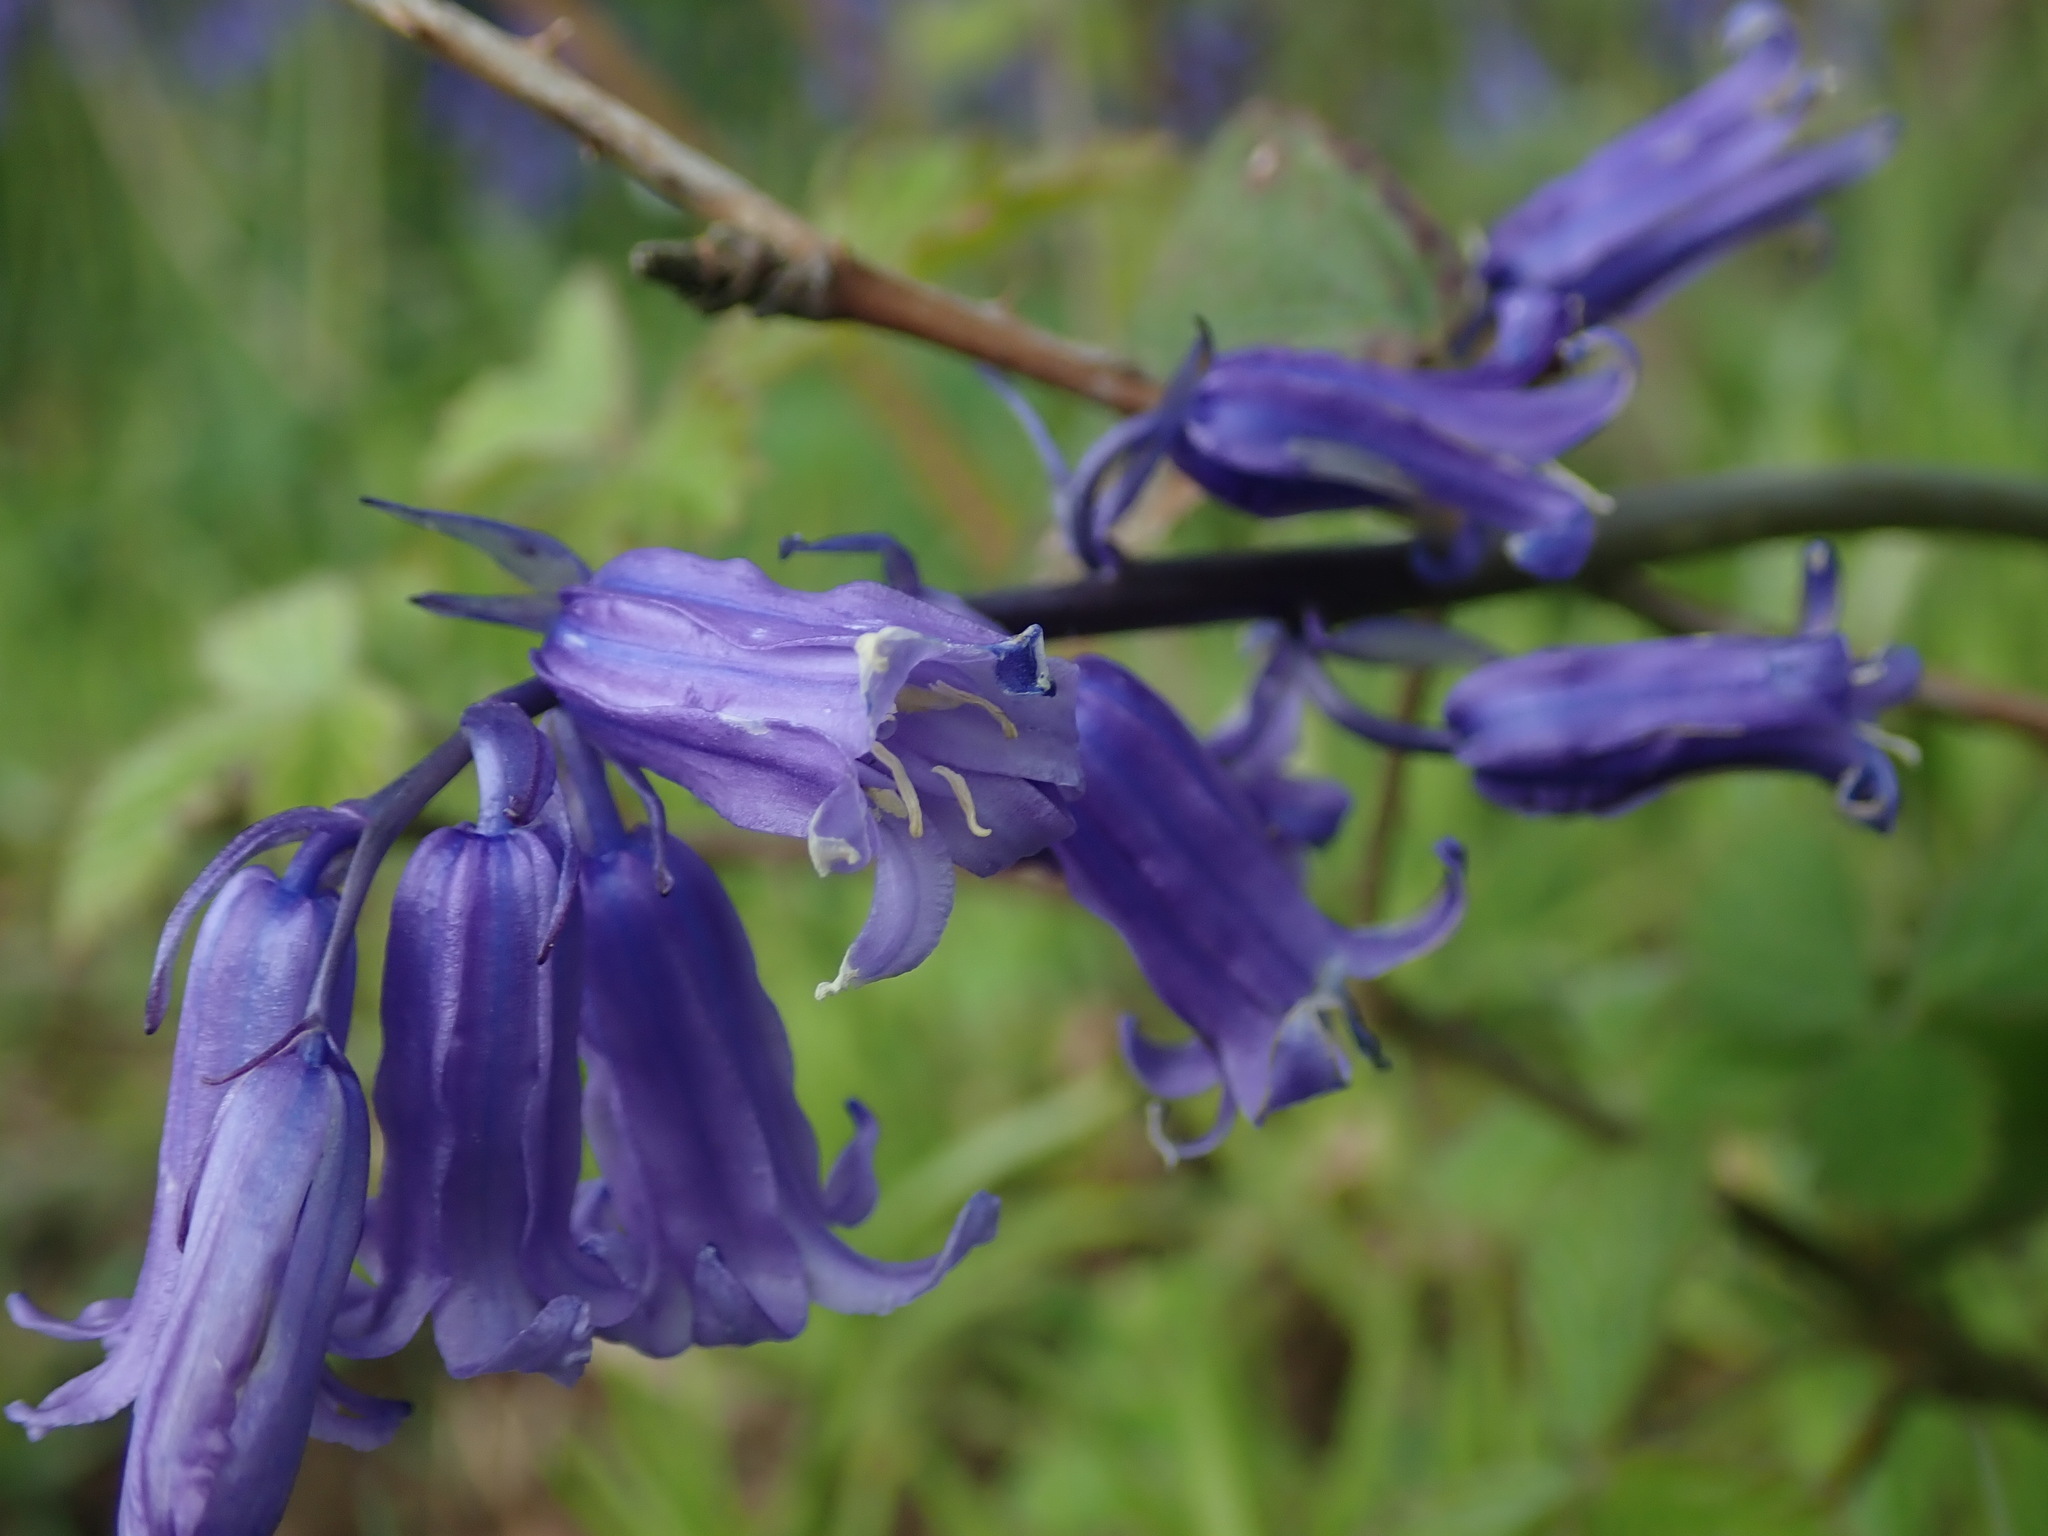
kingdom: Plantae
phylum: Tracheophyta
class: Liliopsida
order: Asparagales
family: Asparagaceae
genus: Hyacinthoides
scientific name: Hyacinthoides non-scripta
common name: Bluebell
